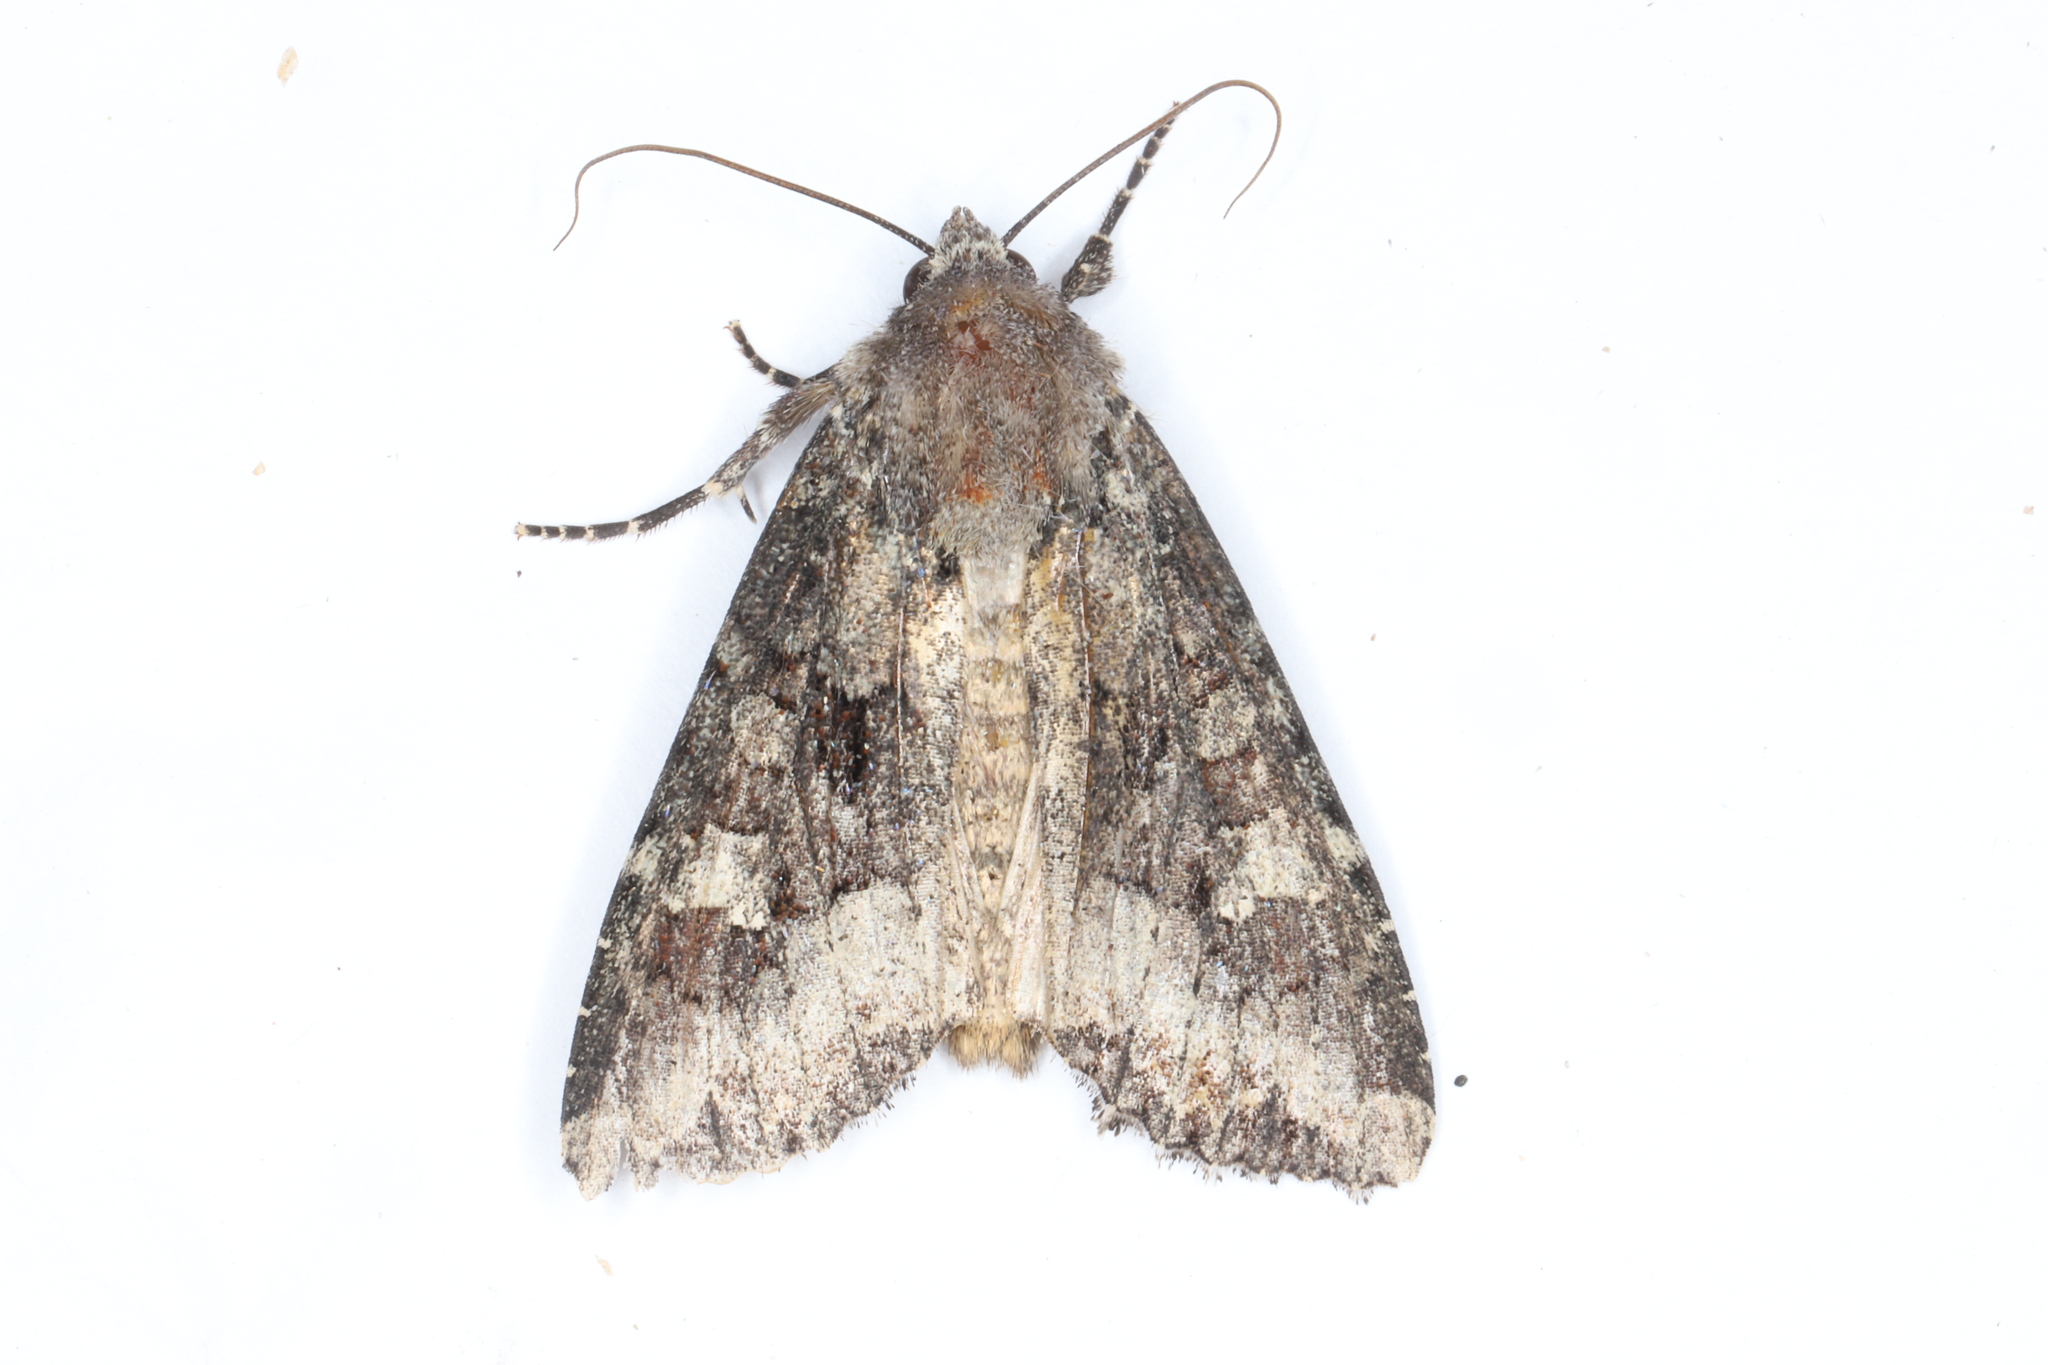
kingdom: Animalia
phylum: Arthropoda
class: Insecta
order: Lepidoptera
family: Noctuidae
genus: Apamea
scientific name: Apamea amputatrix
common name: Yellow-headed cutworm moth
